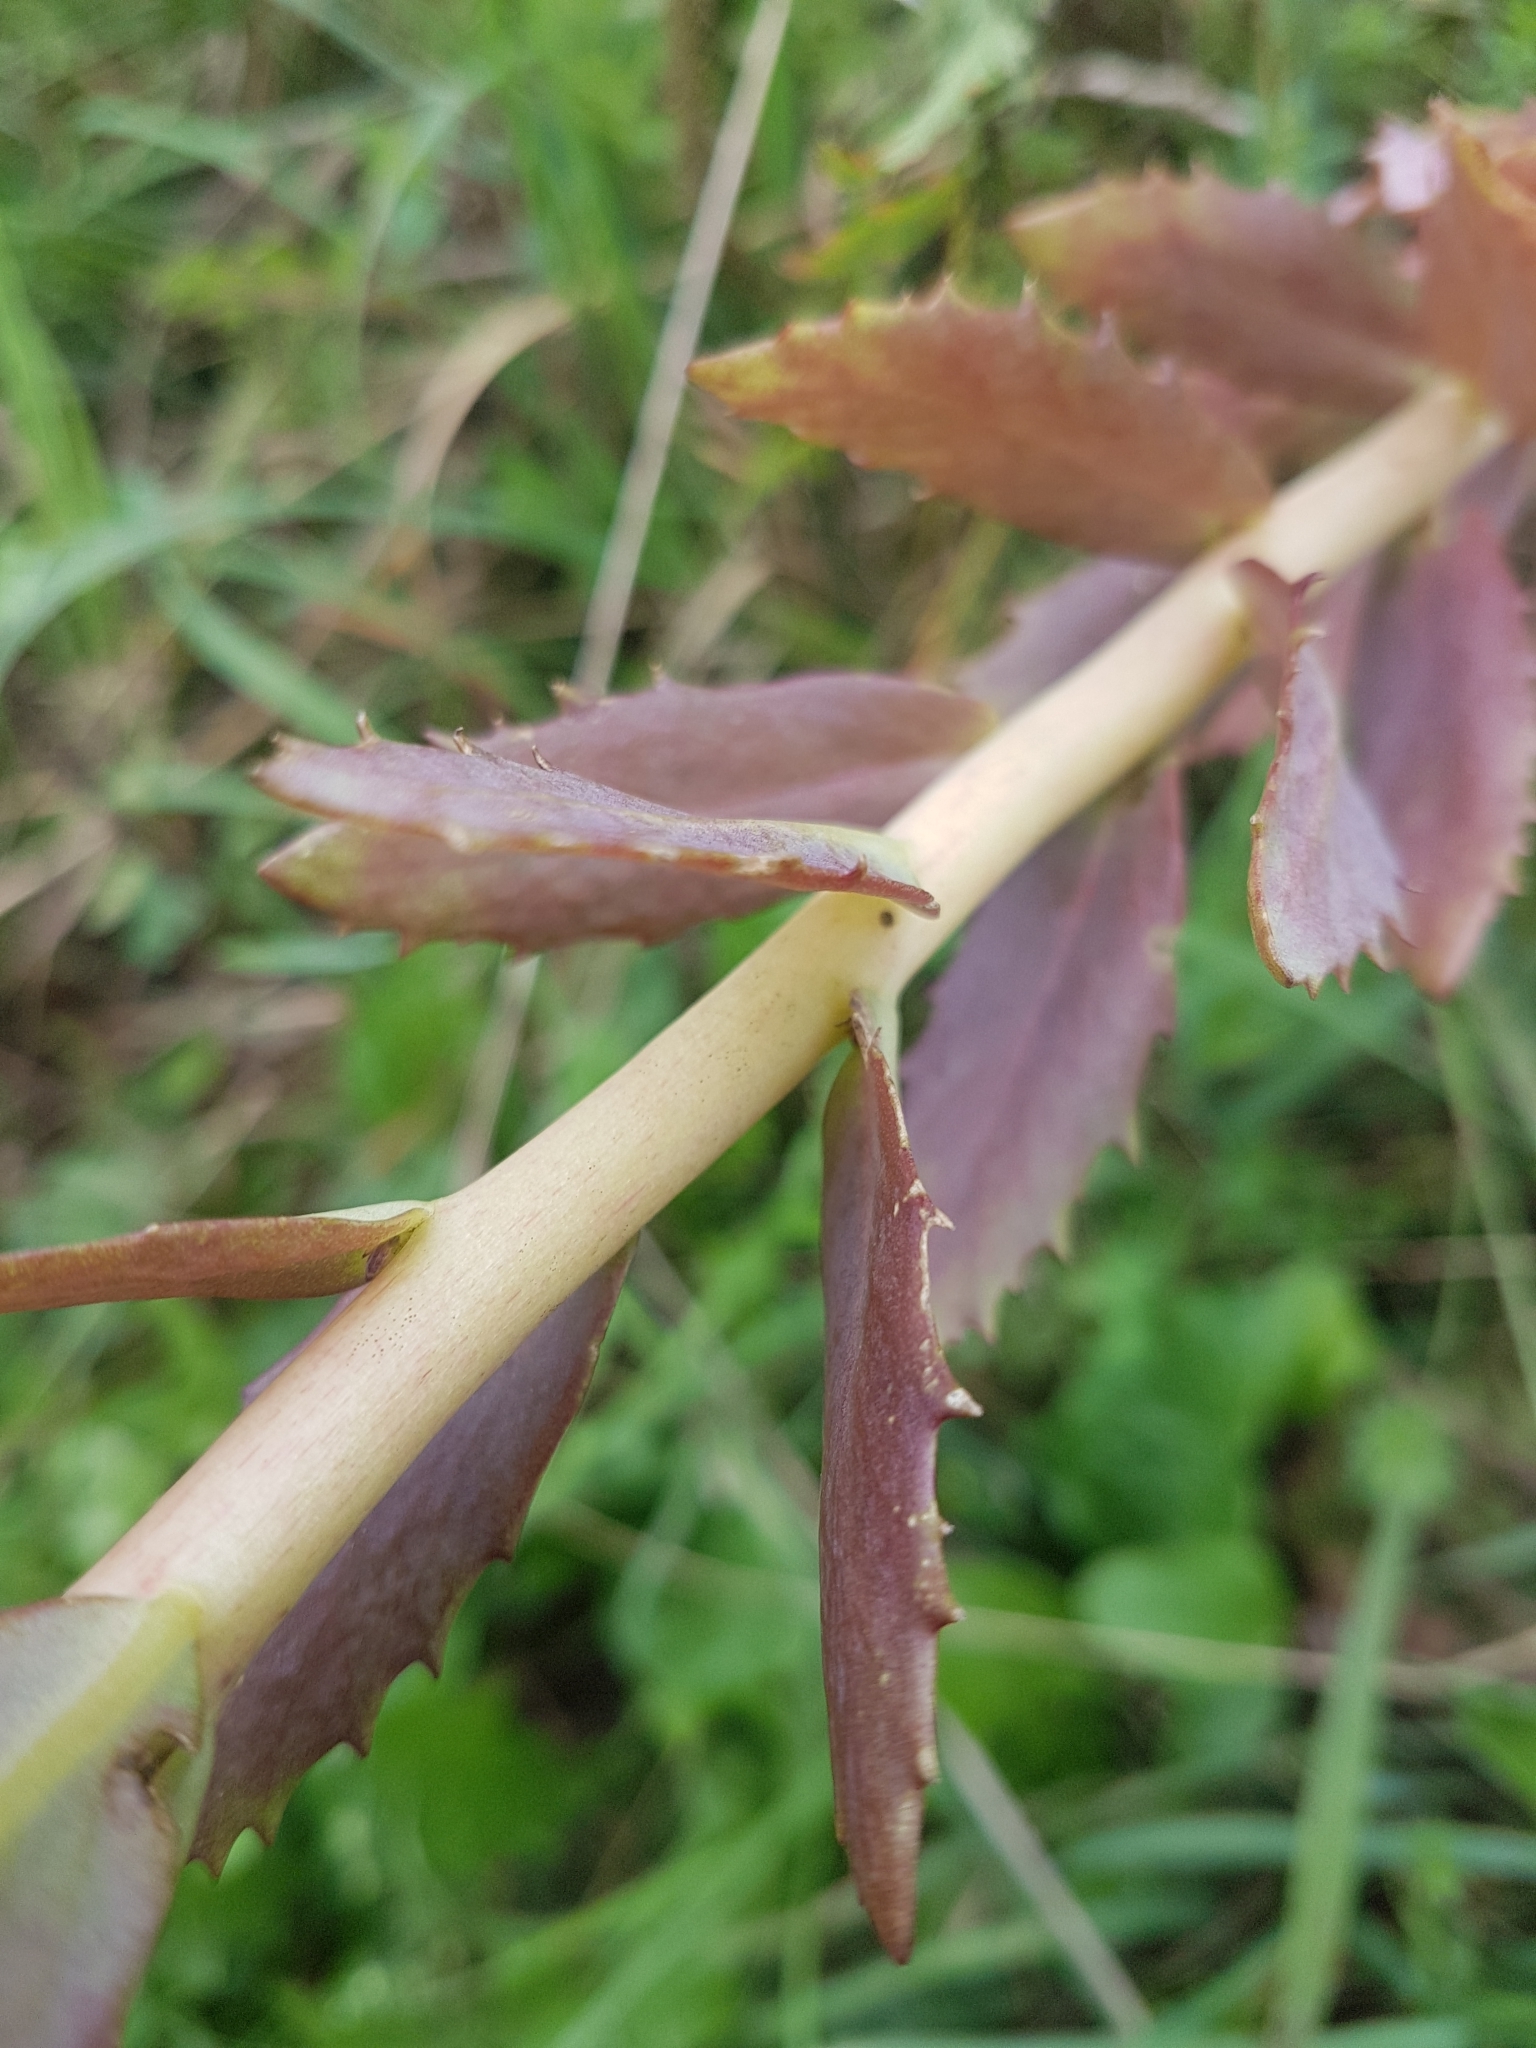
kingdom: Plantae
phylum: Tracheophyta
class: Magnoliopsida
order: Saxifragales
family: Crassulaceae
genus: Hylotelephium
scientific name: Hylotelephium telephium
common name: Live-forever
